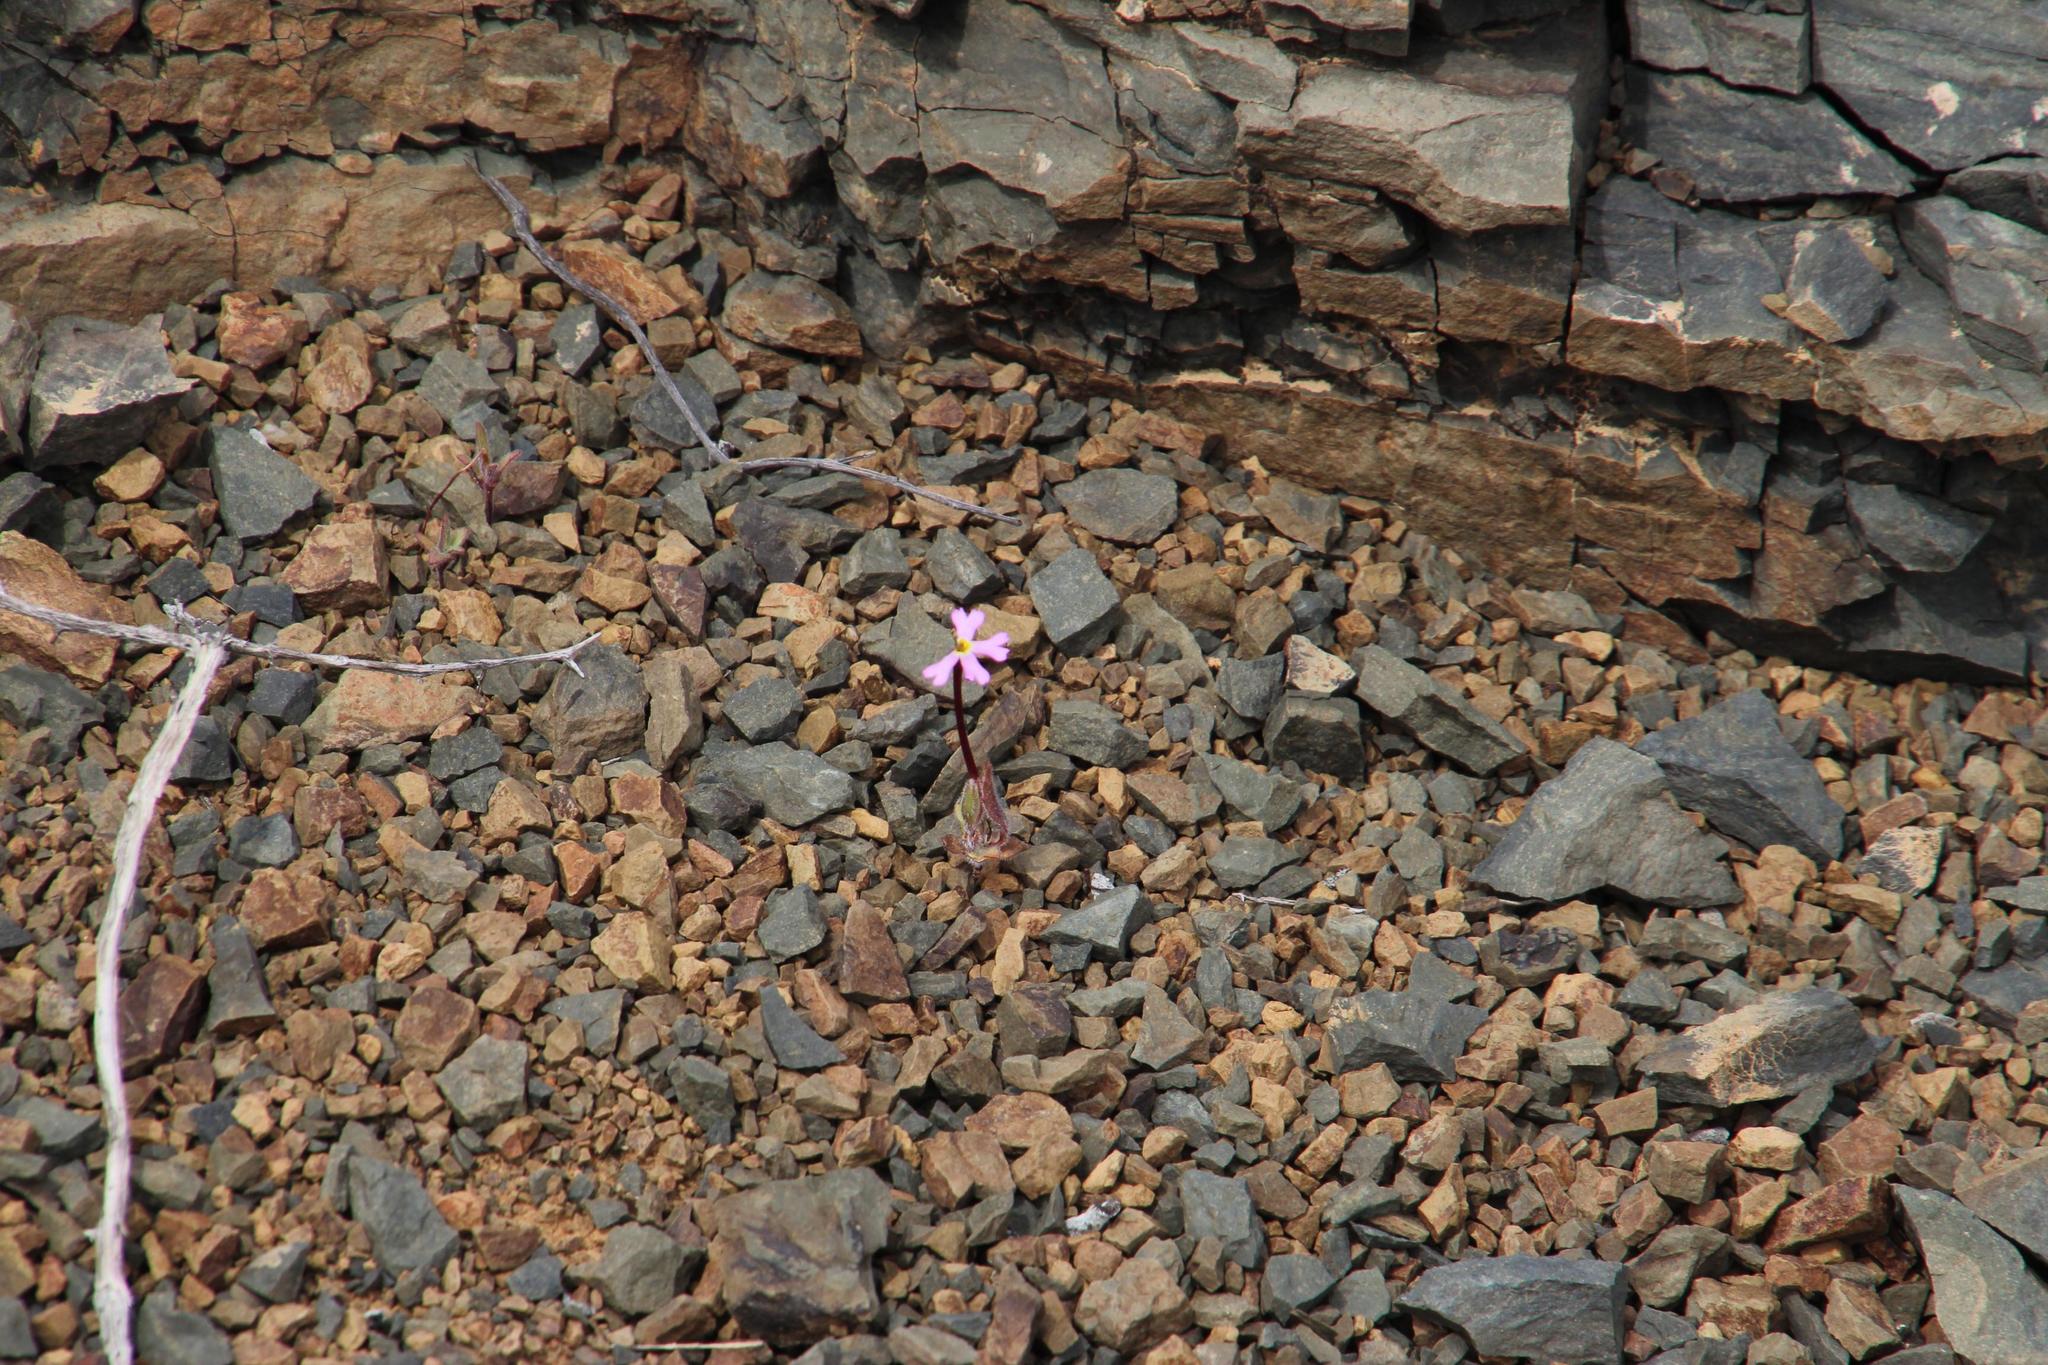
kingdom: Plantae
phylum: Tracheophyta
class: Magnoliopsida
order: Lamiales
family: Scrophulariaceae
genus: Zaluzianskya
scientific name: Zaluzianskya mirabilis
